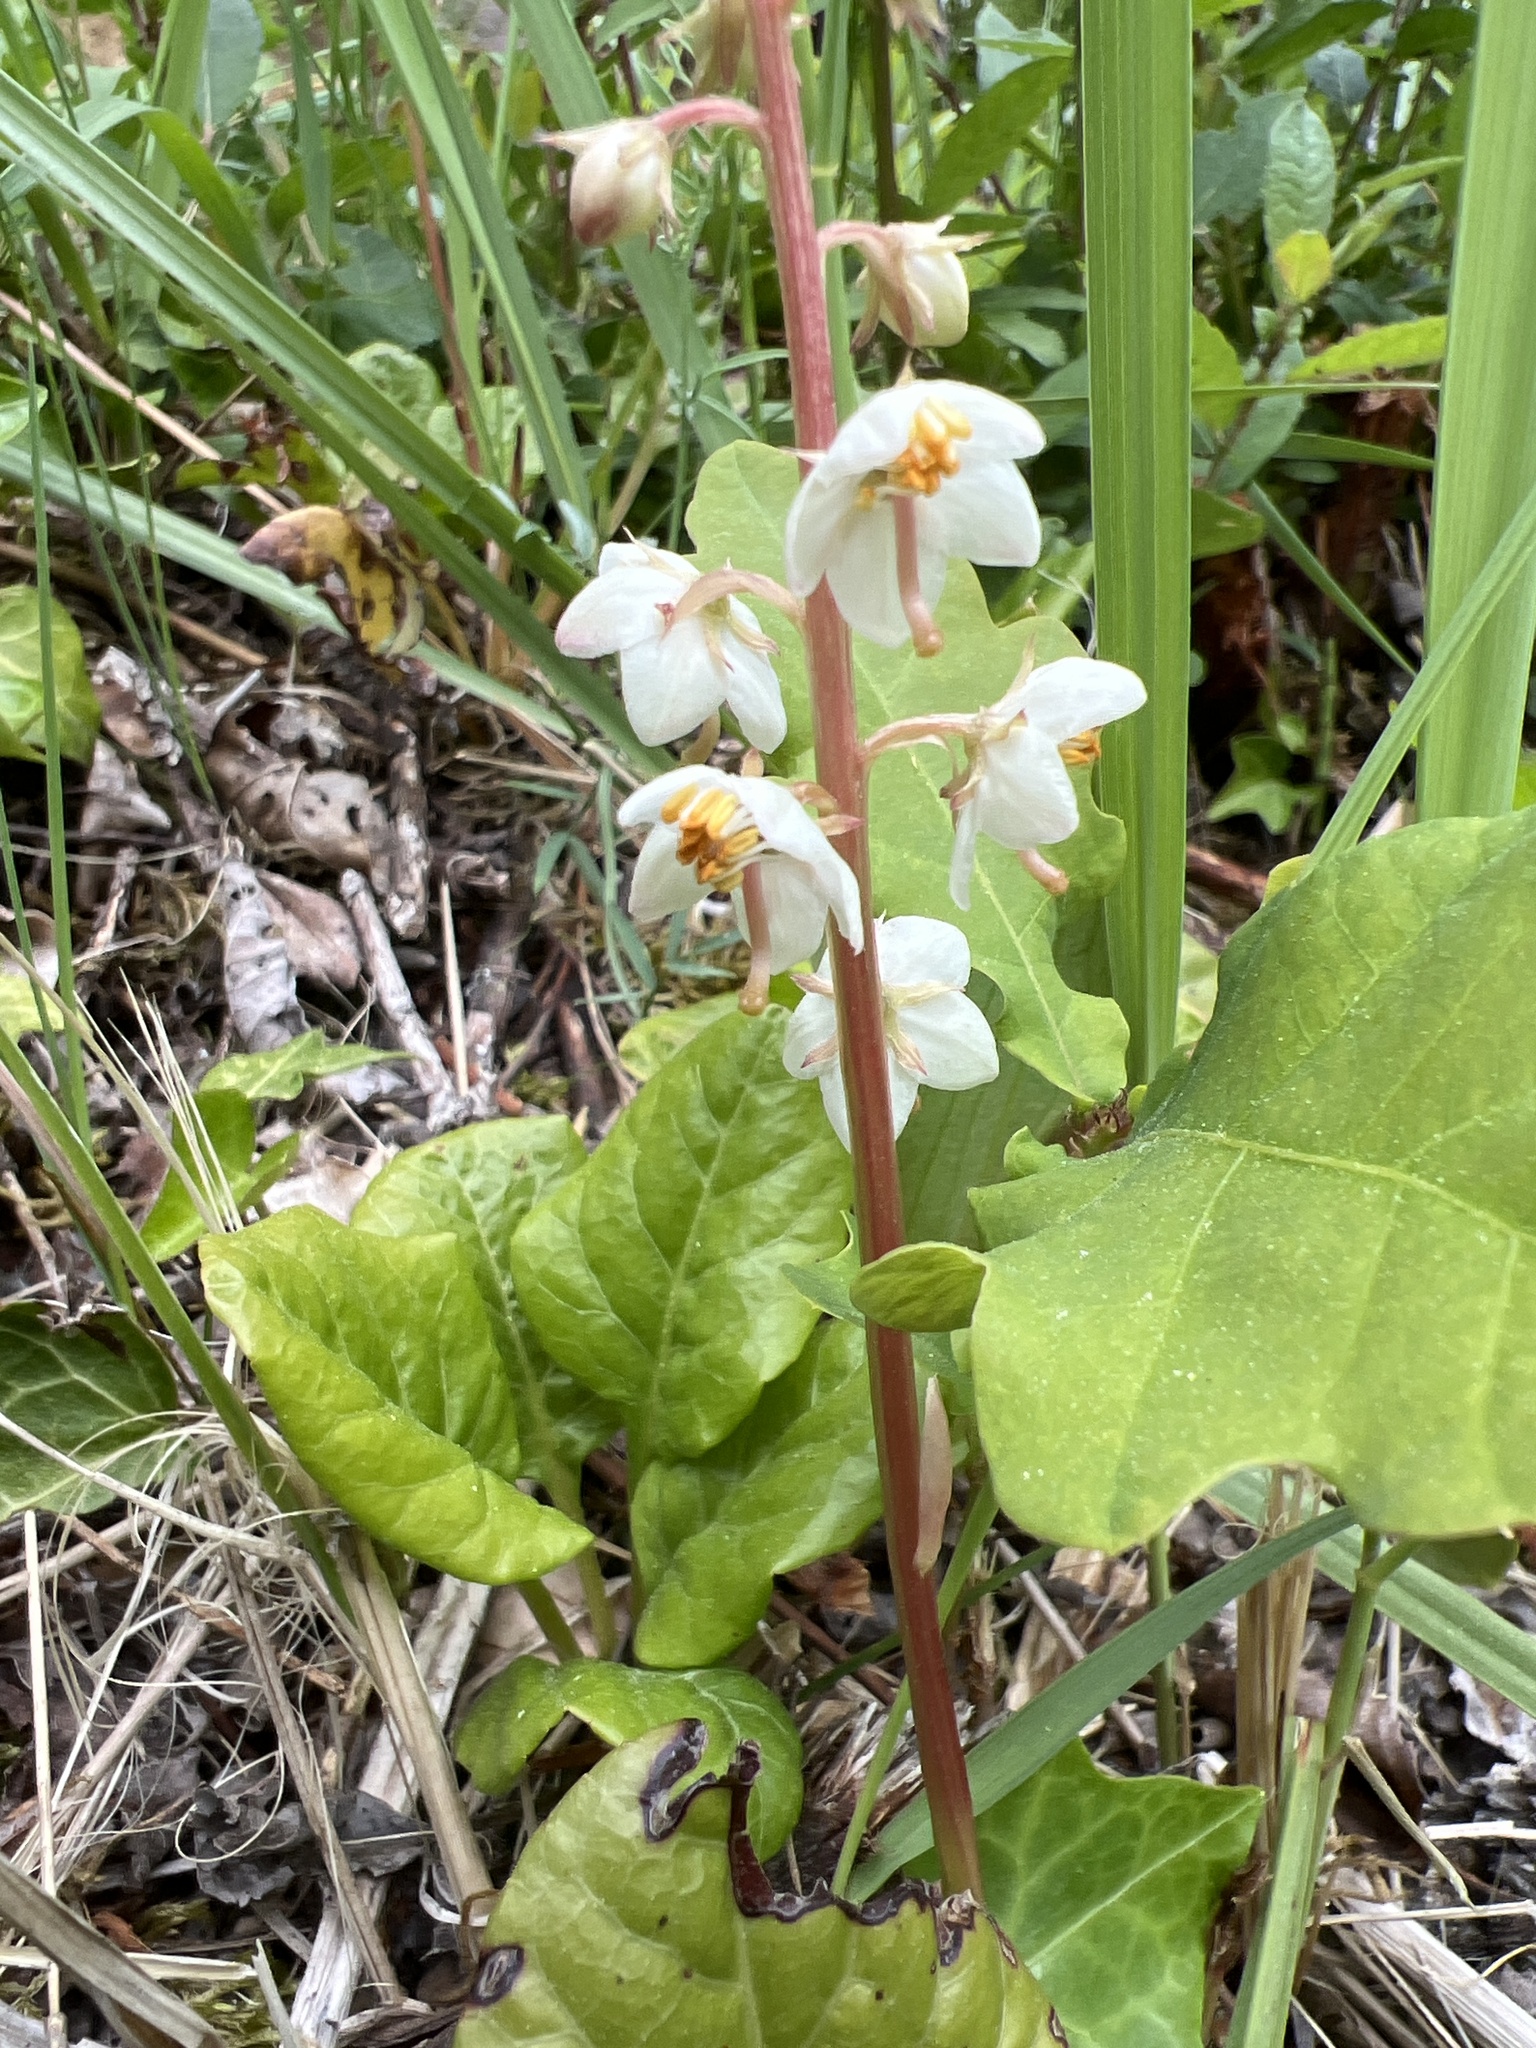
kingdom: Plantae
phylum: Tracheophyta
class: Magnoliopsida
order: Ericales
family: Ericaceae
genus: Pyrola
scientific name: Pyrola rotundifolia
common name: Round-leaved wintergreen
